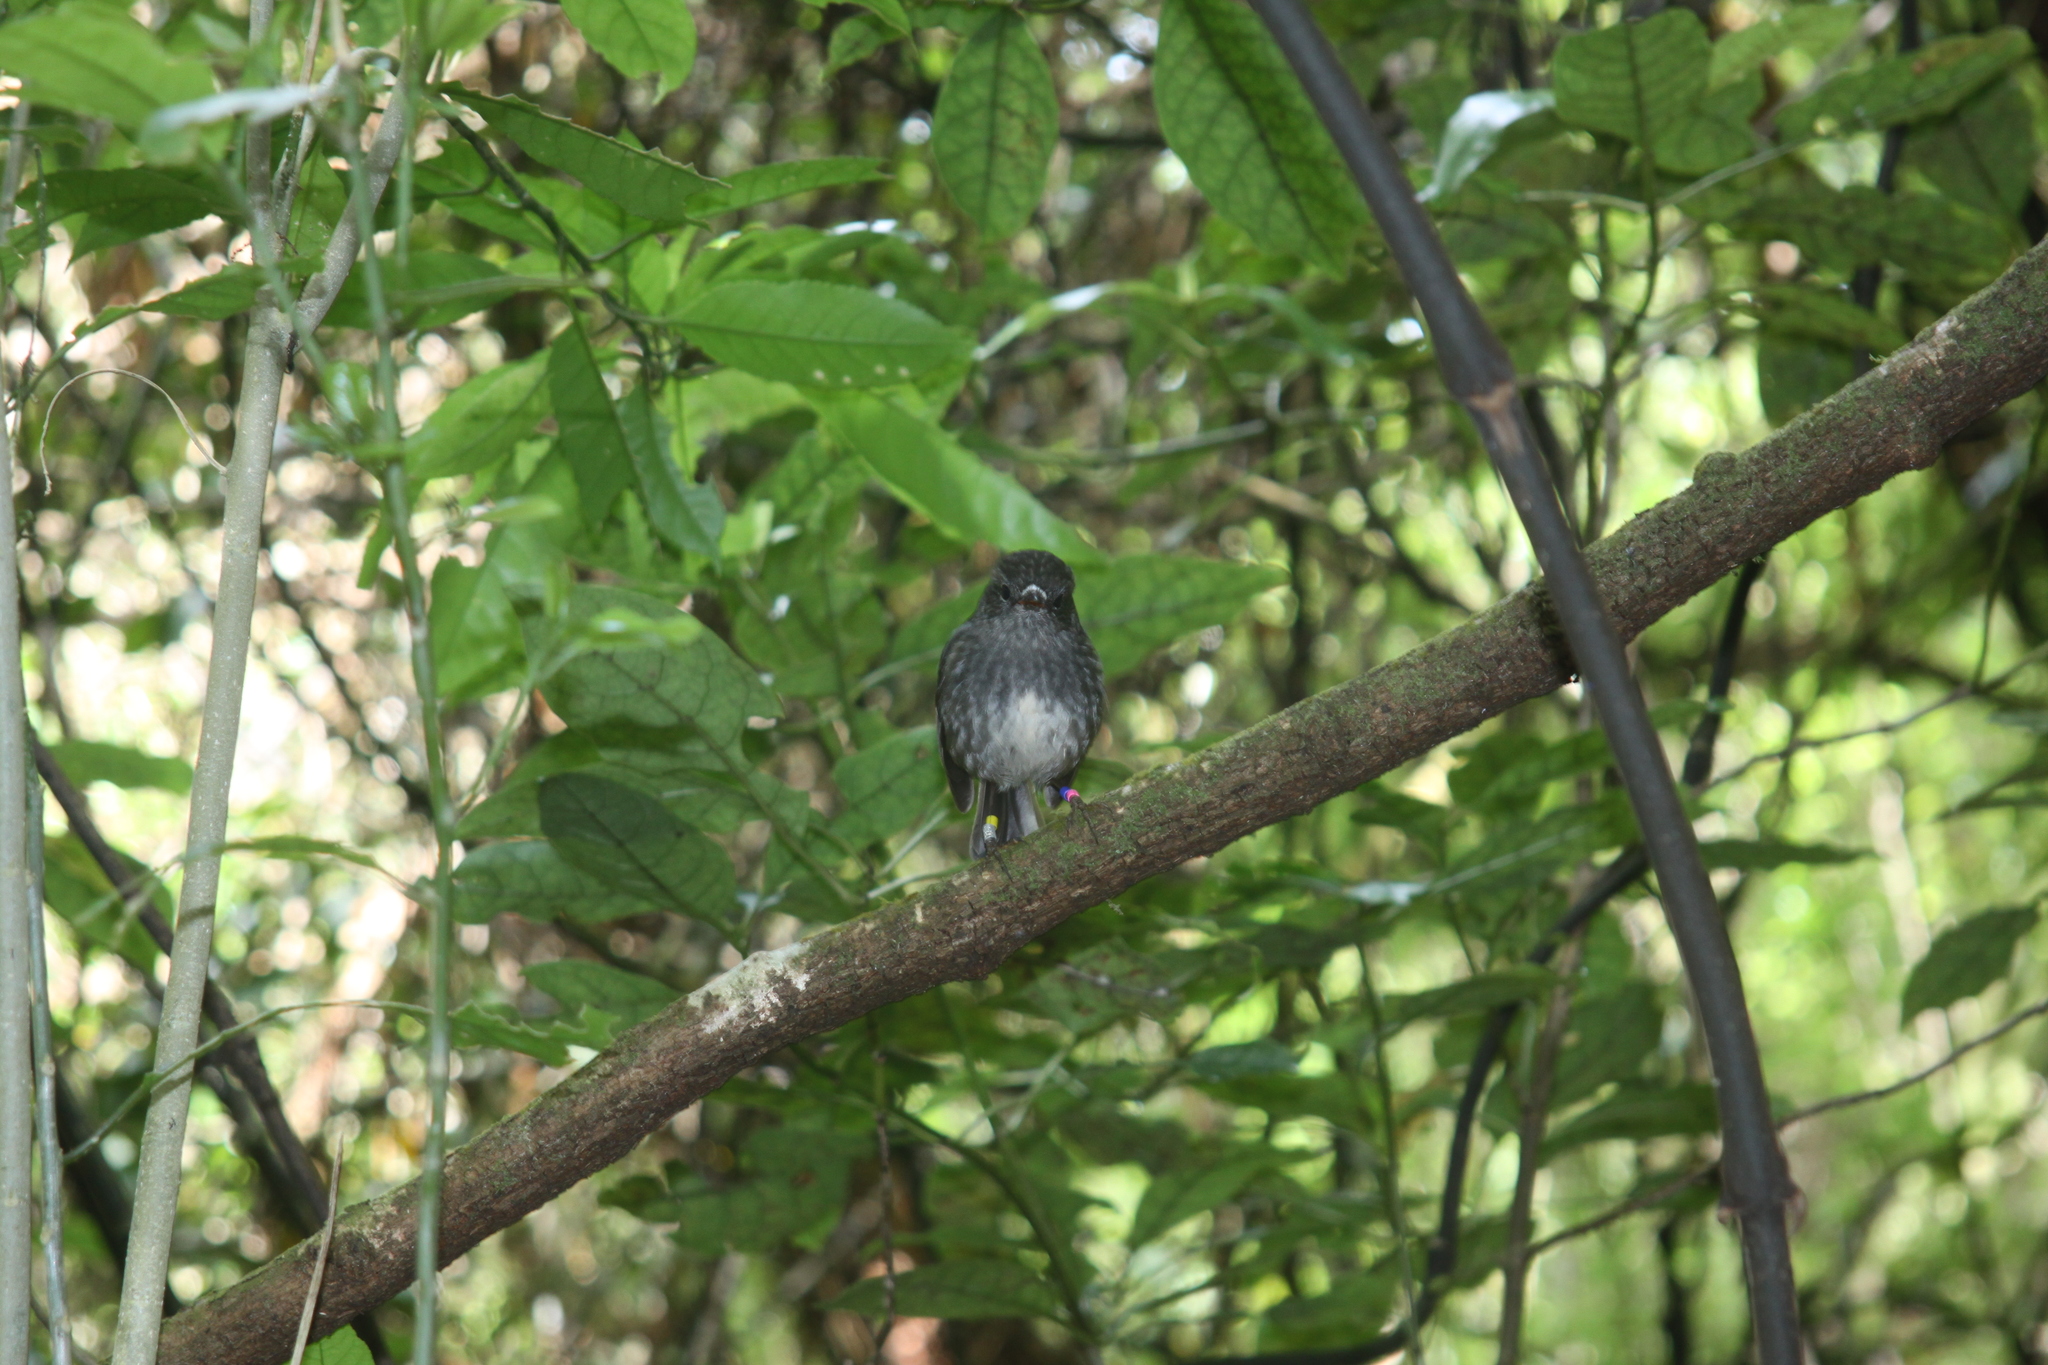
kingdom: Animalia
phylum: Chordata
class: Aves
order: Passeriformes
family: Petroicidae
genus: Petroica
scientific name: Petroica australis
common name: New zealand robin
